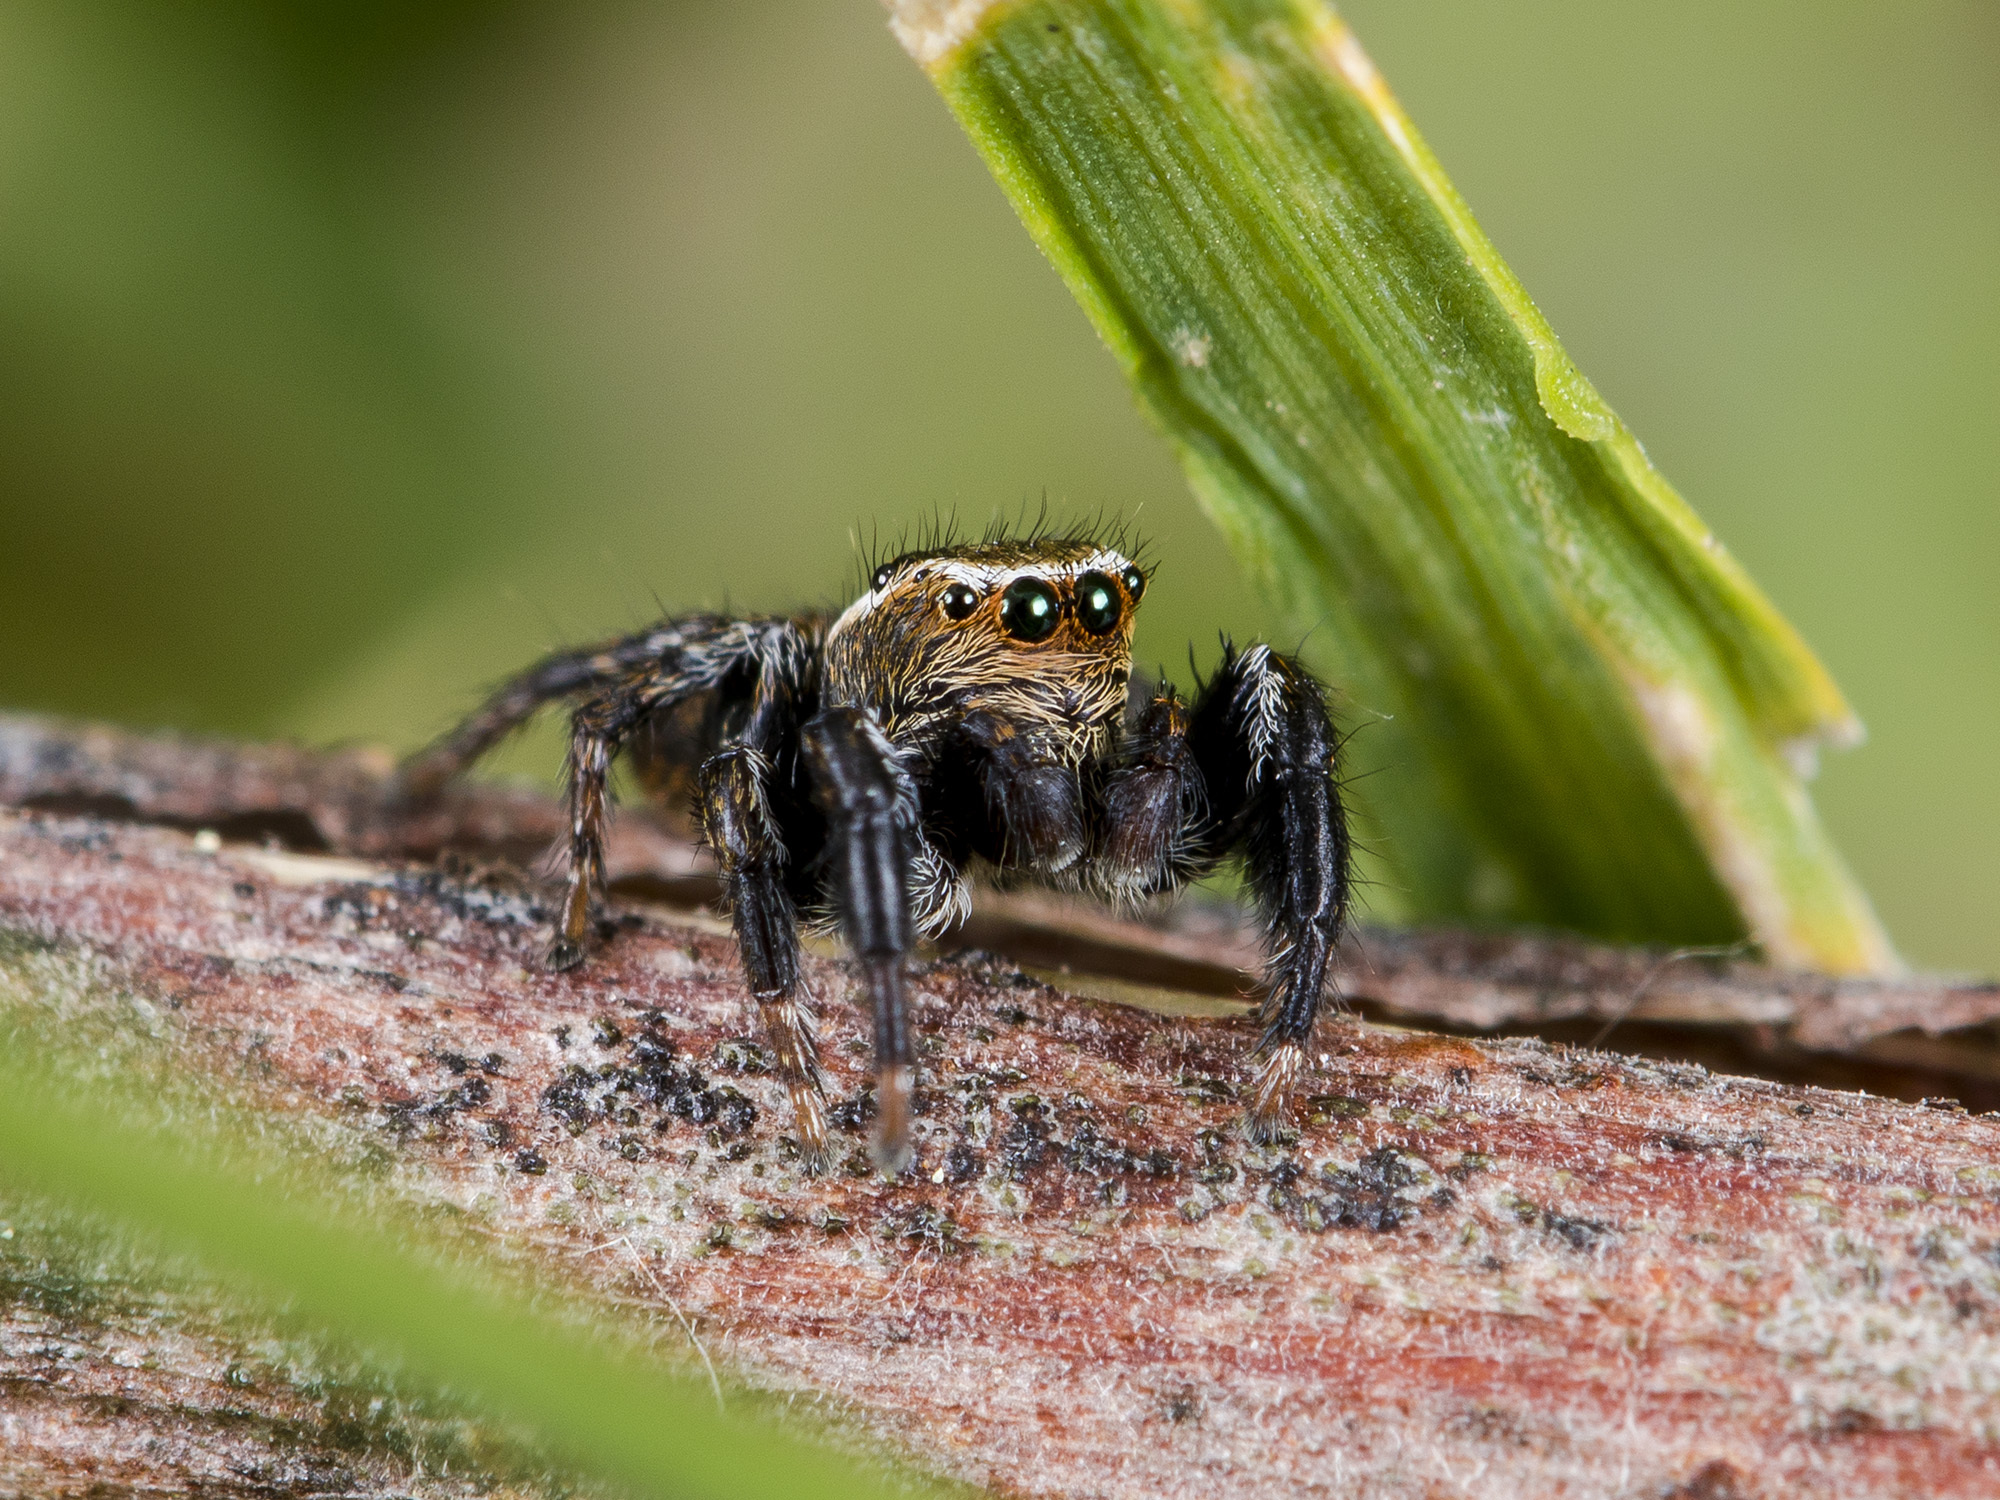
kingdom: Animalia
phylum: Arthropoda
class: Arachnida
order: Araneae
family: Salticidae
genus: Evarcha
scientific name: Evarcha michailovi
